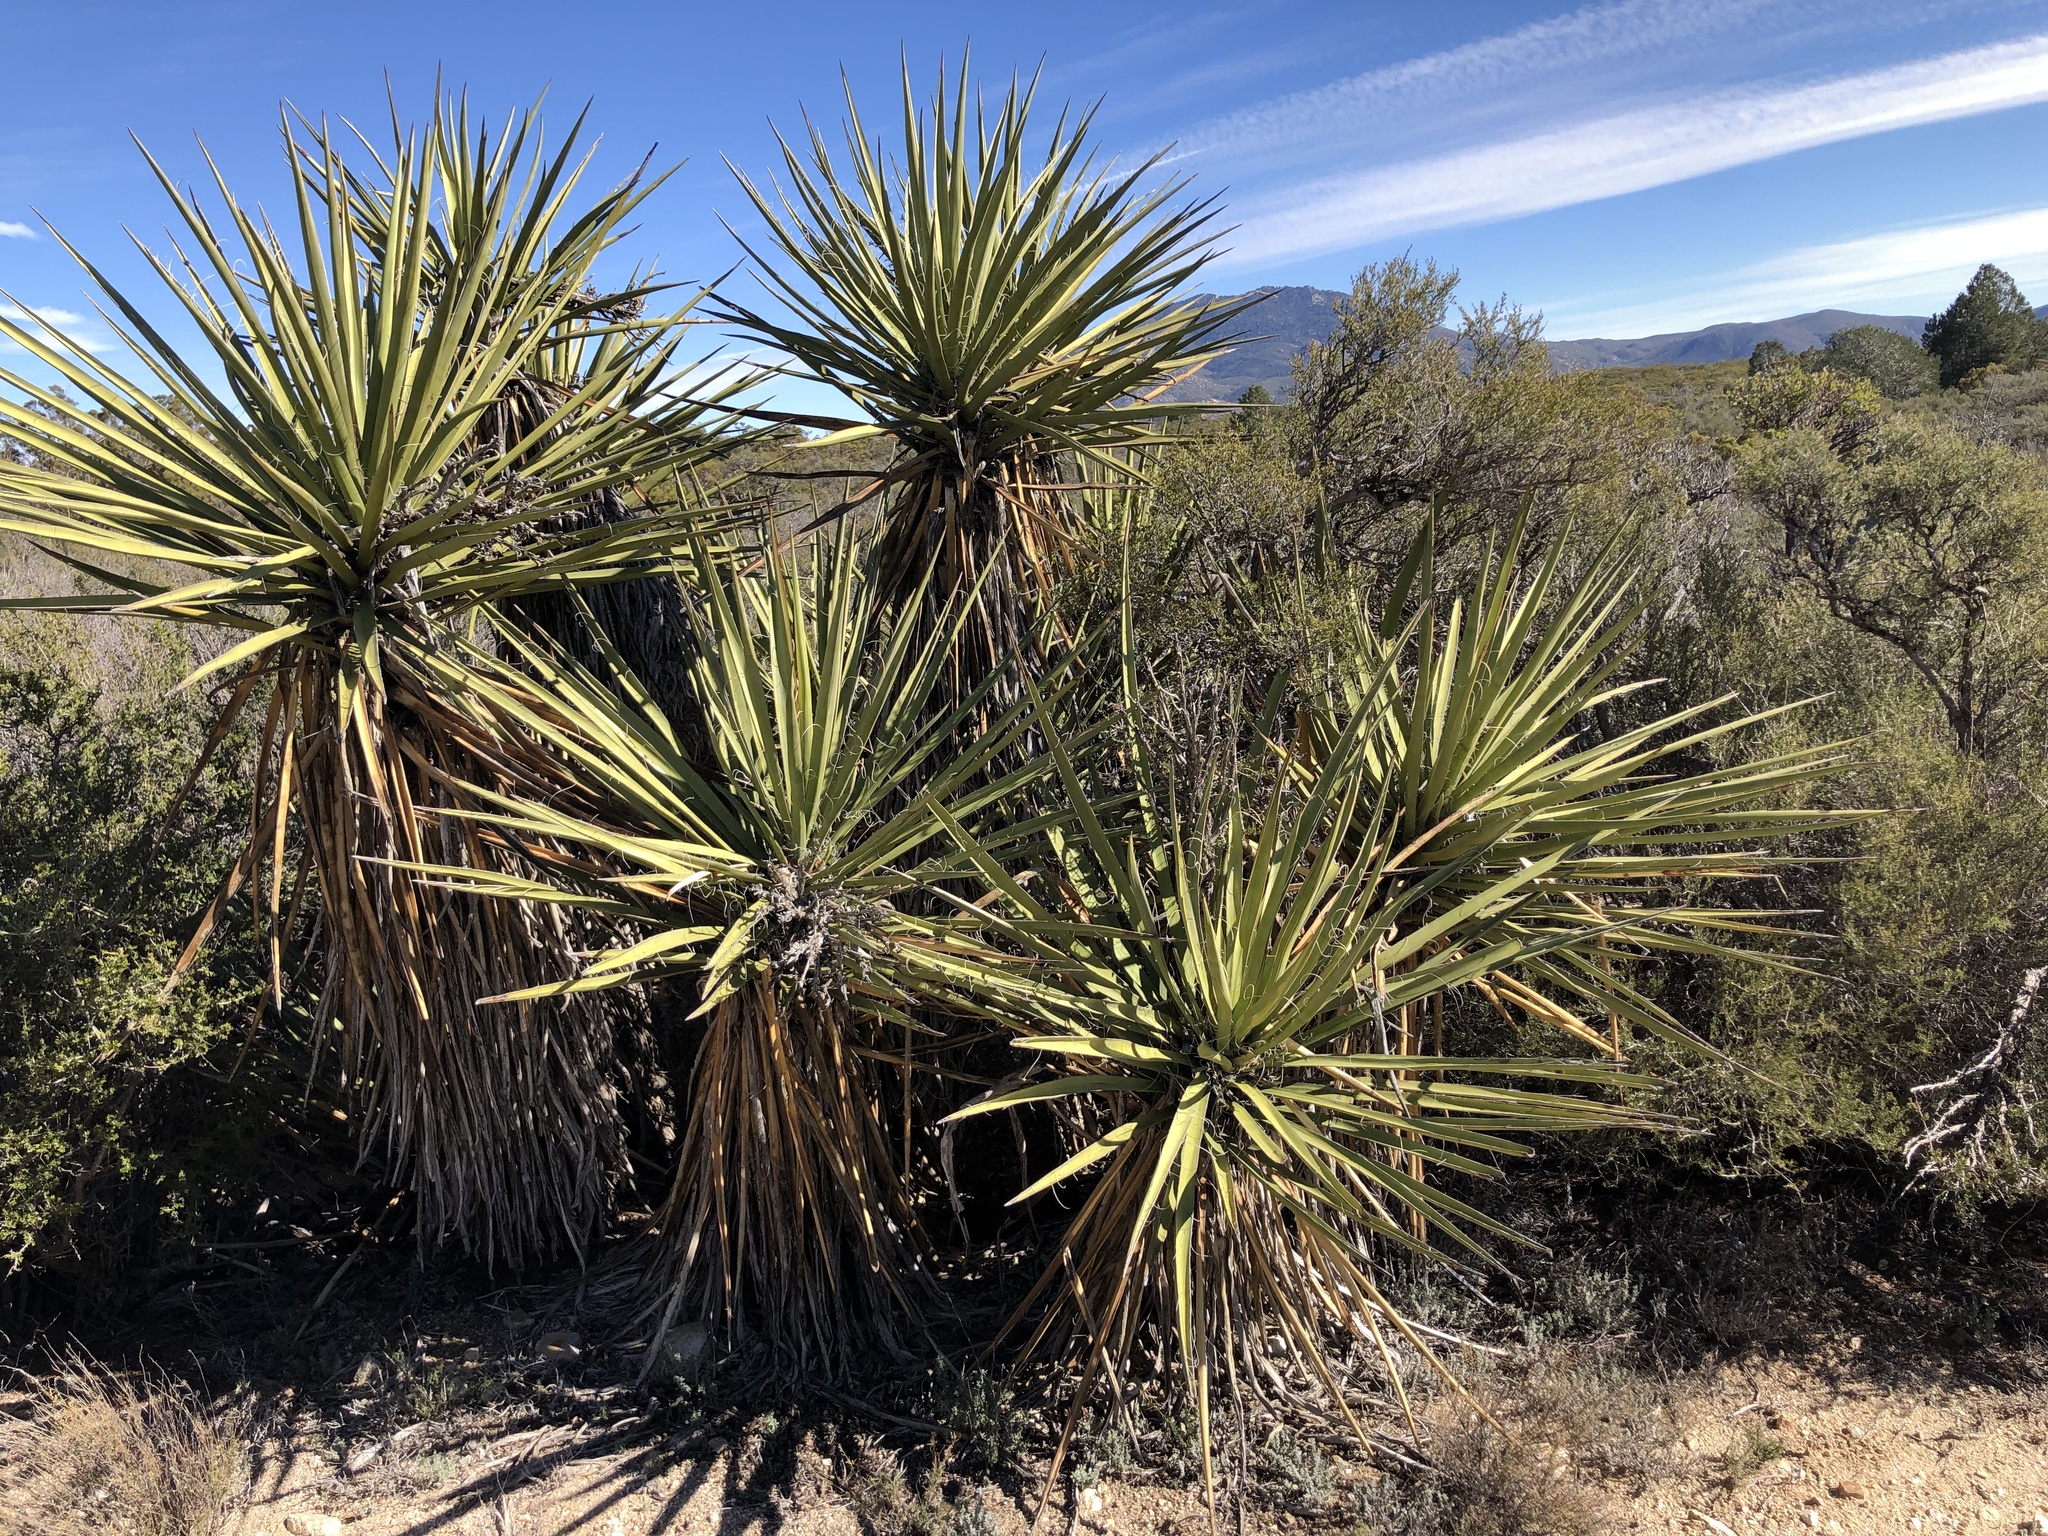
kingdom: Plantae
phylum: Tracheophyta
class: Liliopsida
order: Asparagales
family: Asparagaceae
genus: Yucca
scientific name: Yucca schidigera
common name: Mojave yucca
